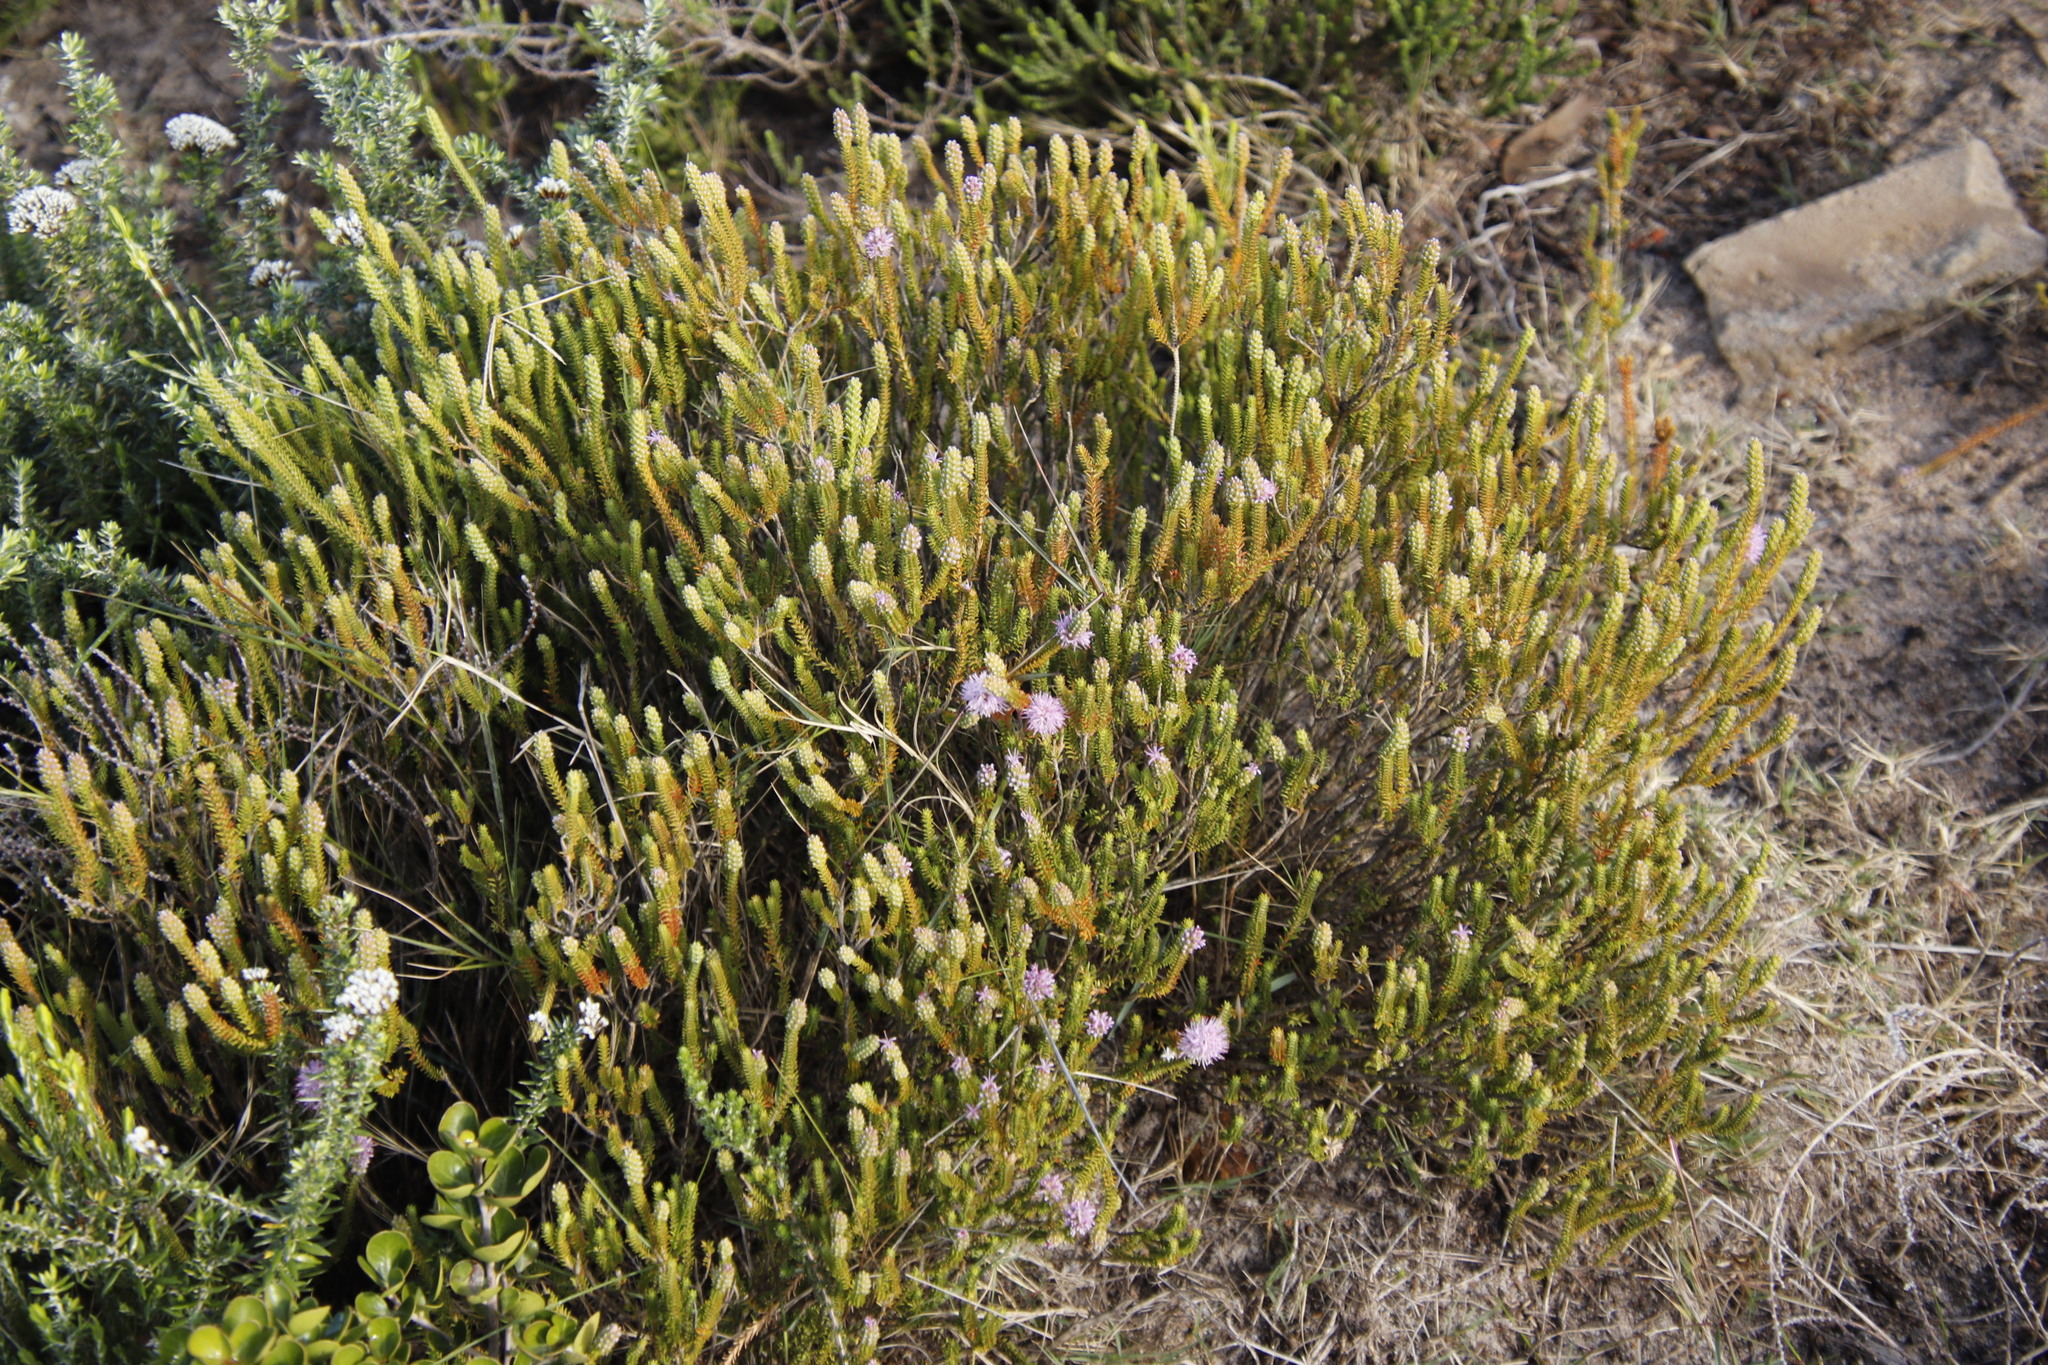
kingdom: Plantae
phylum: Tracheophyta
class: Magnoliopsida
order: Lamiales
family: Stilbaceae
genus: Stilbe
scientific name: Stilbe ericoides
